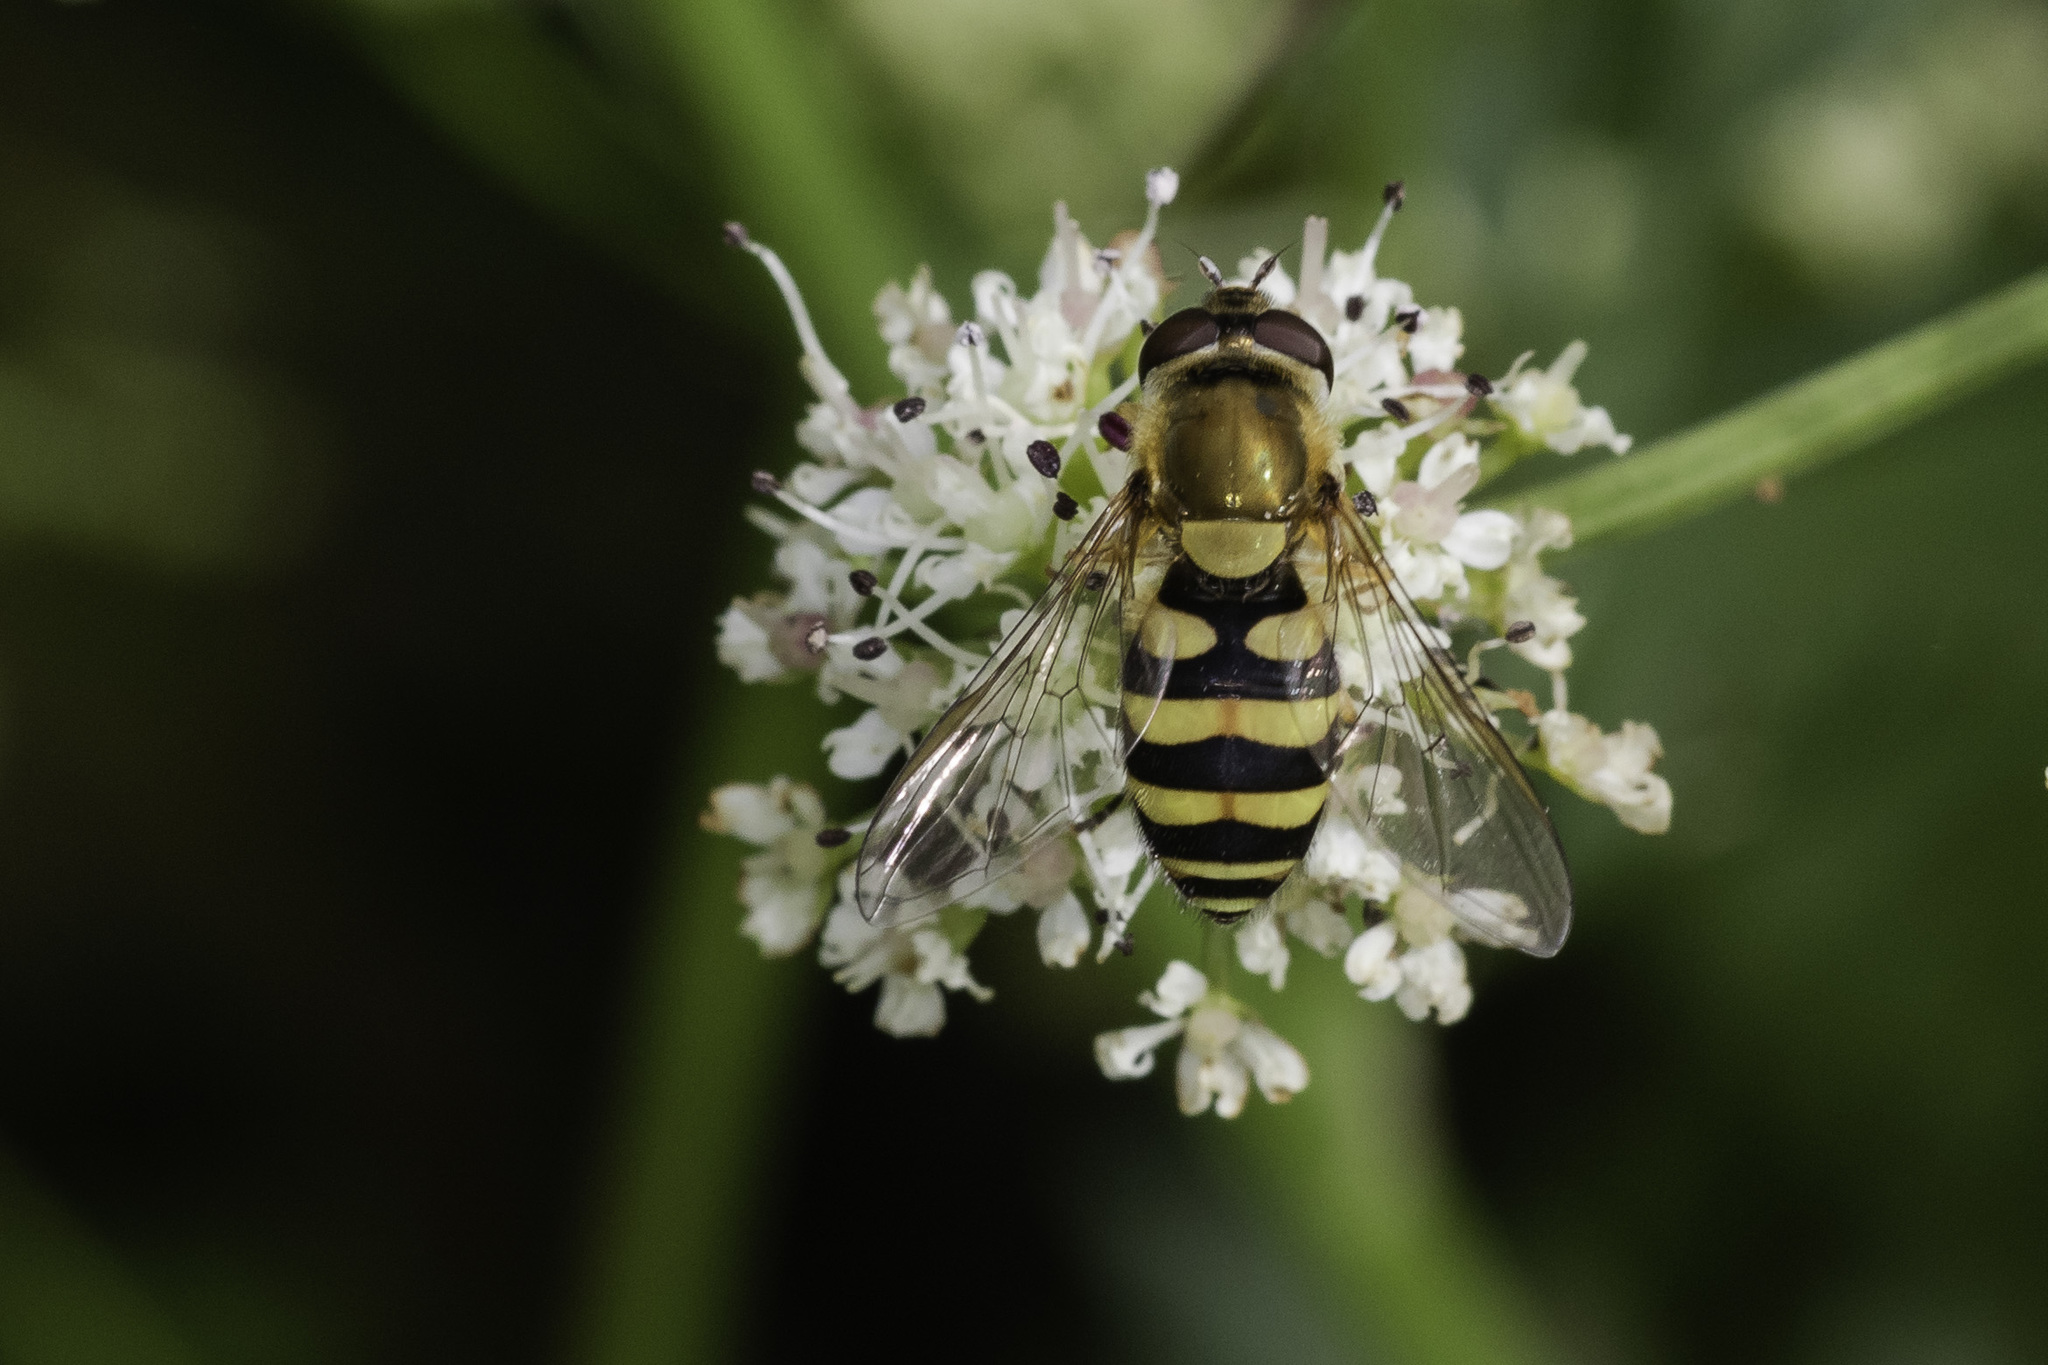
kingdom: Animalia
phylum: Arthropoda
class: Insecta
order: Diptera
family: Syrphidae
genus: Syrphus
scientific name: Syrphus
